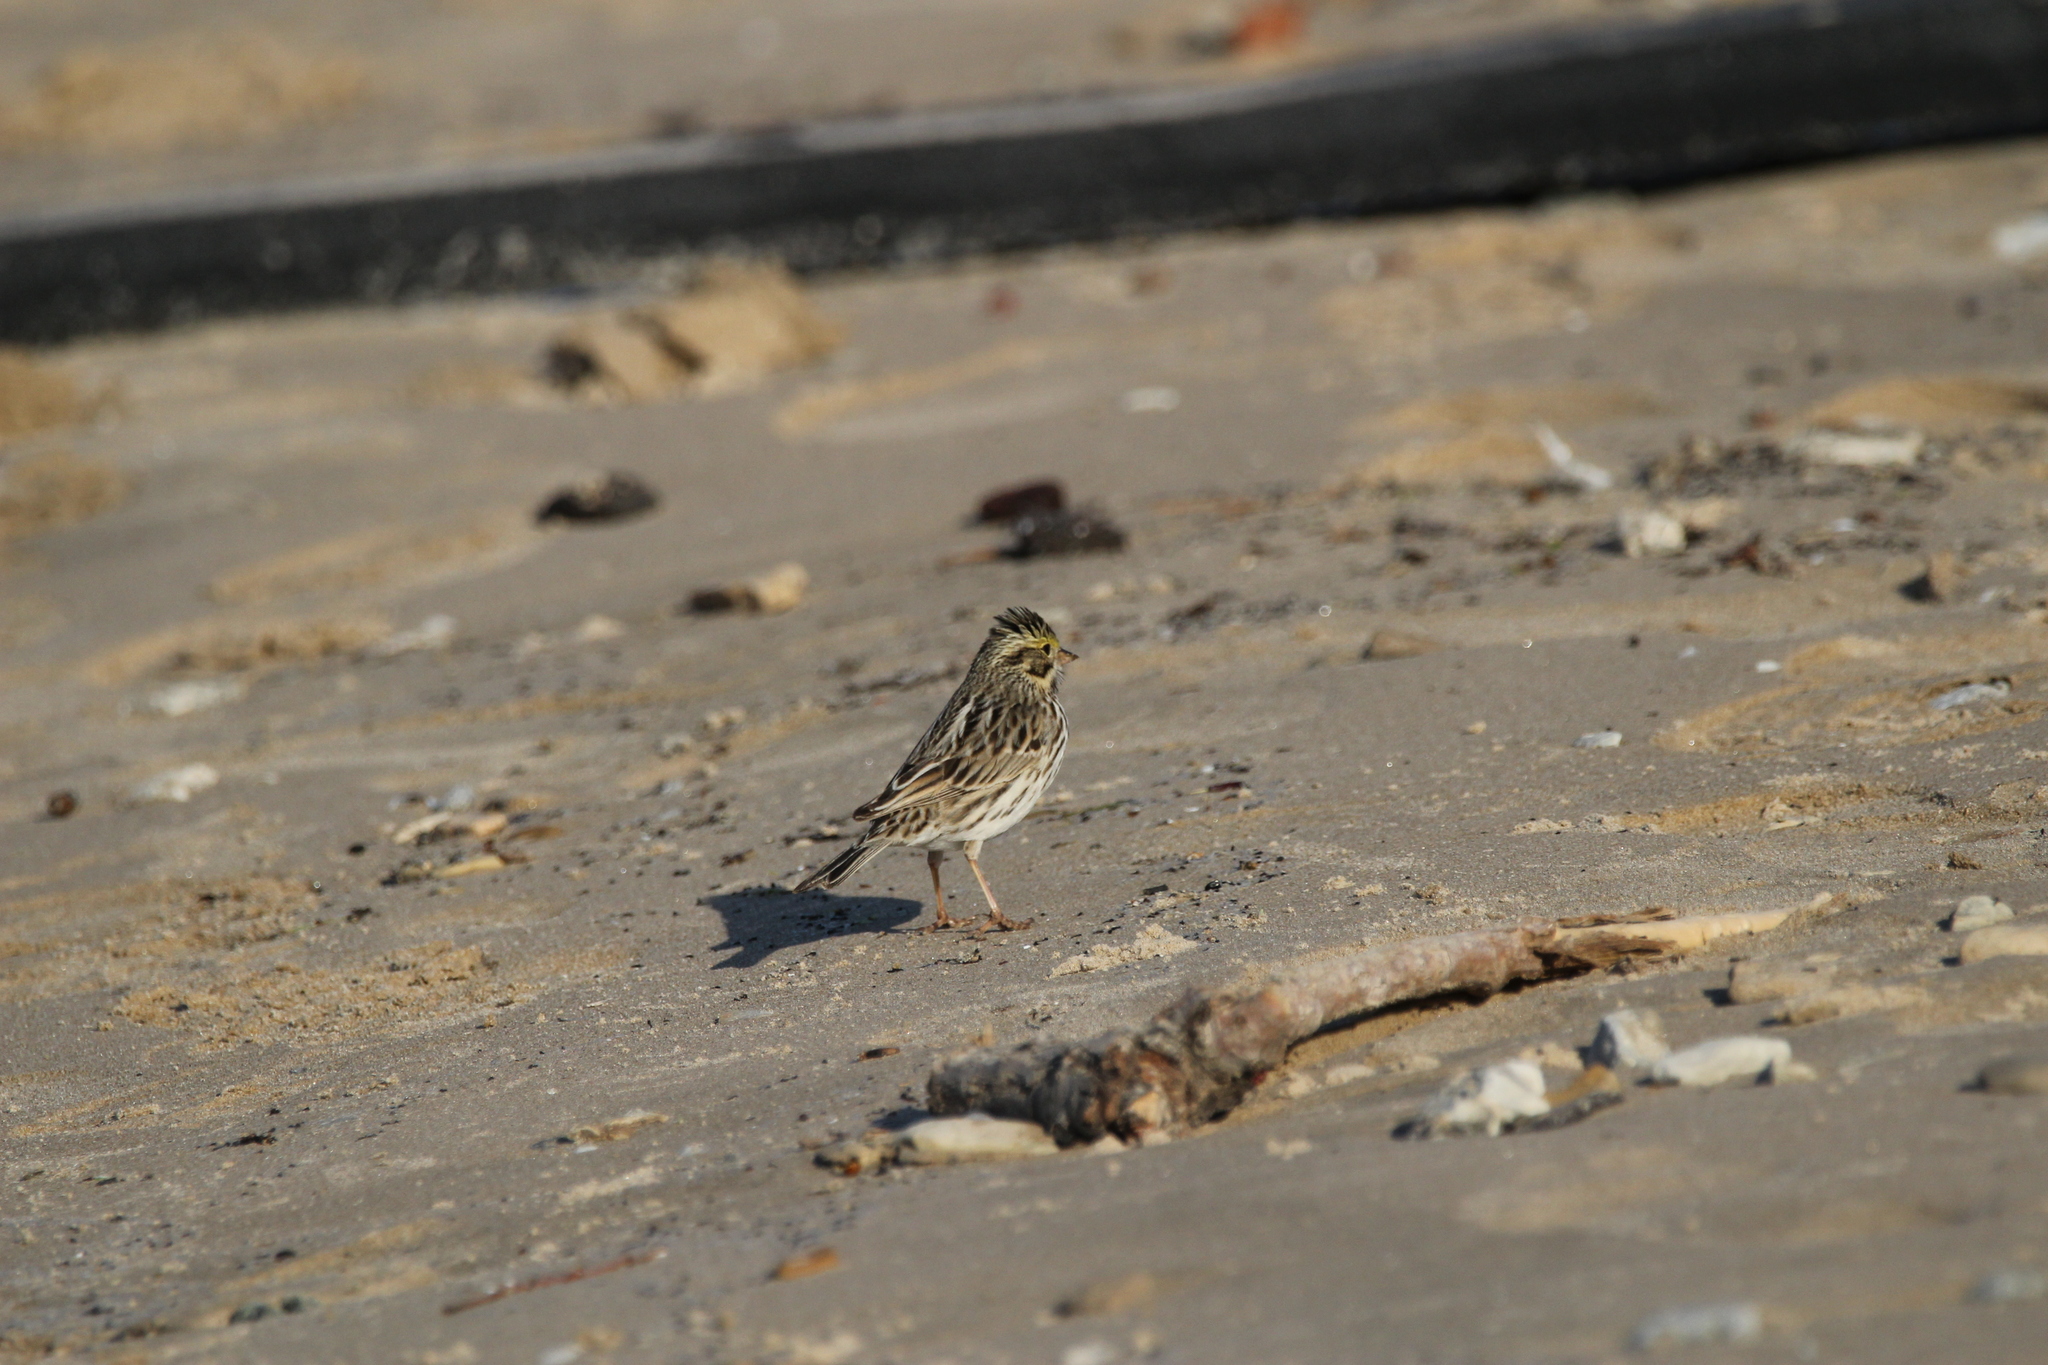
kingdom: Animalia
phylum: Chordata
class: Aves
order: Passeriformes
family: Passerellidae
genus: Passerculus
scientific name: Passerculus sandwichensis
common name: Savannah sparrow
